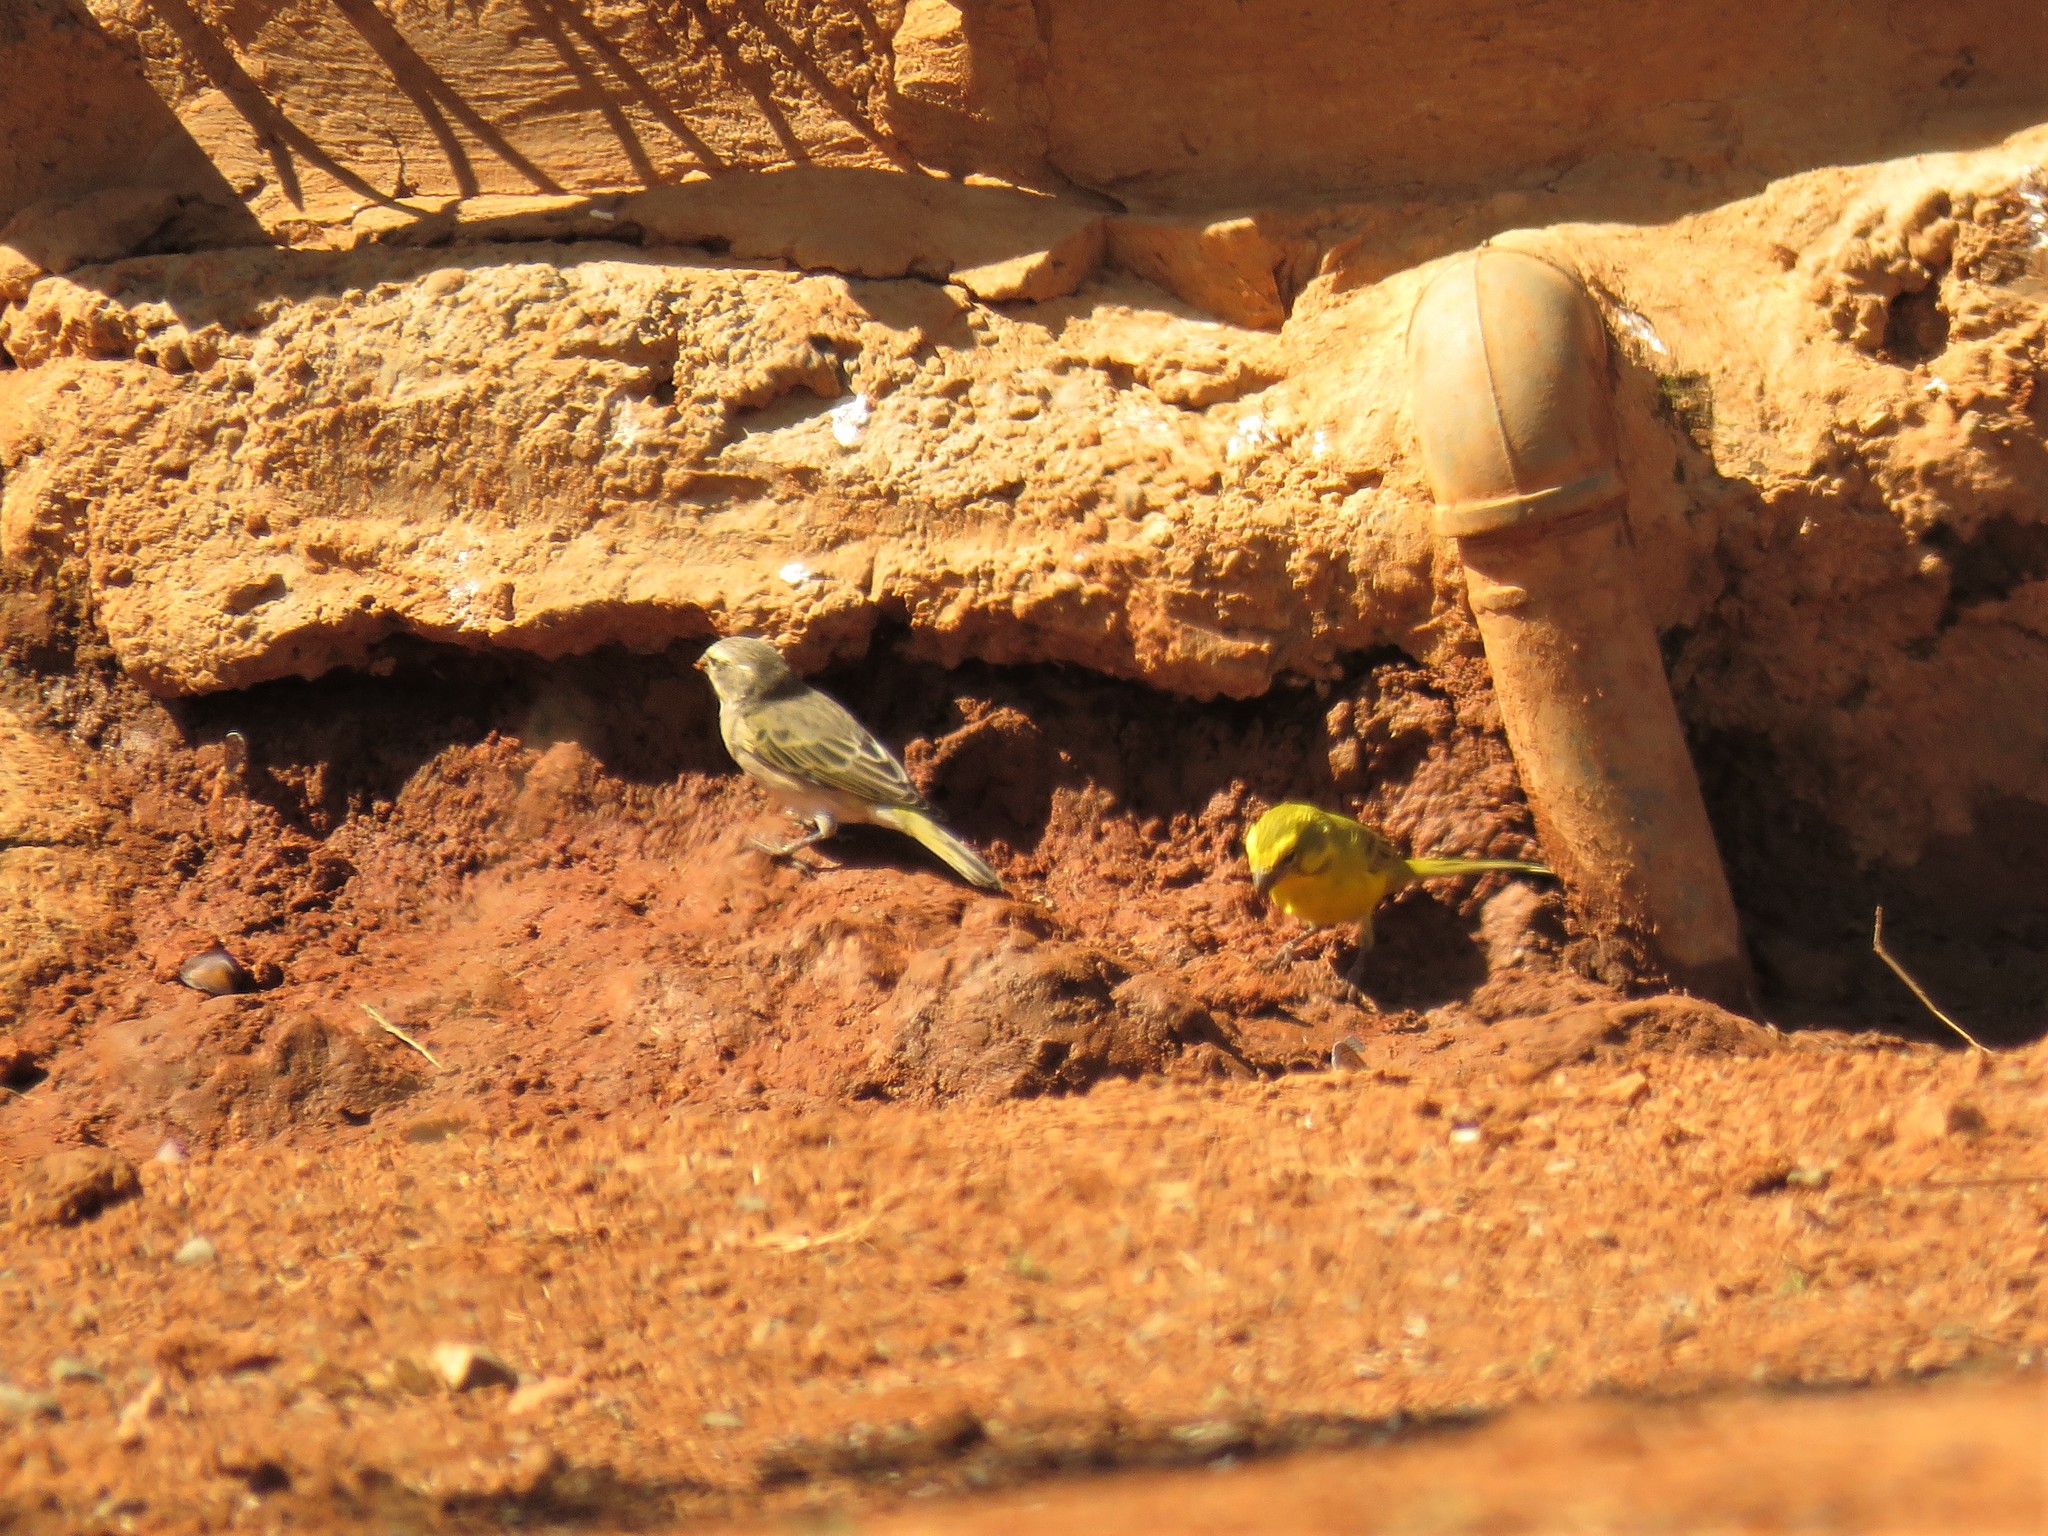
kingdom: Animalia
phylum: Chordata
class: Aves
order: Passeriformes
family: Fringillidae
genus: Crithagra
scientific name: Crithagra flaviventris
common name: Yellow canary
